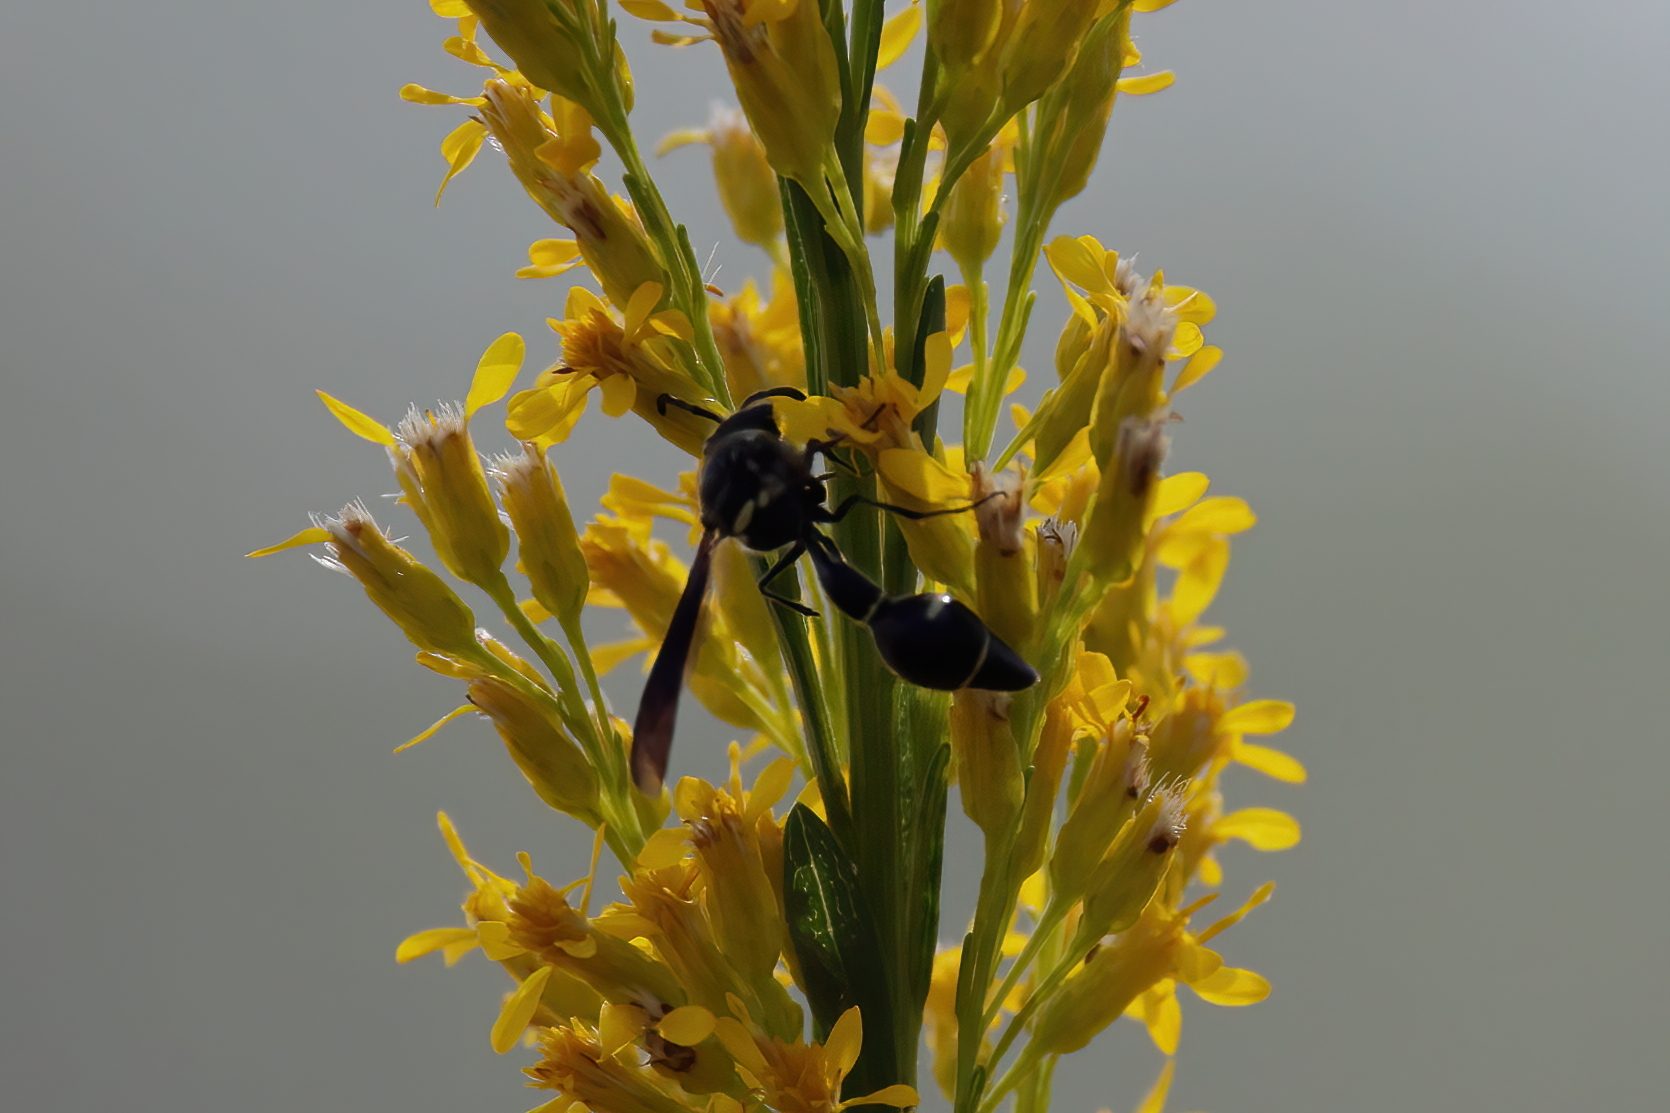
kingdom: Animalia
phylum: Arthropoda
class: Insecta
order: Hymenoptera
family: Vespidae
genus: Eumenes
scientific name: Eumenes fraternus
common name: Fraternal potter wasp
